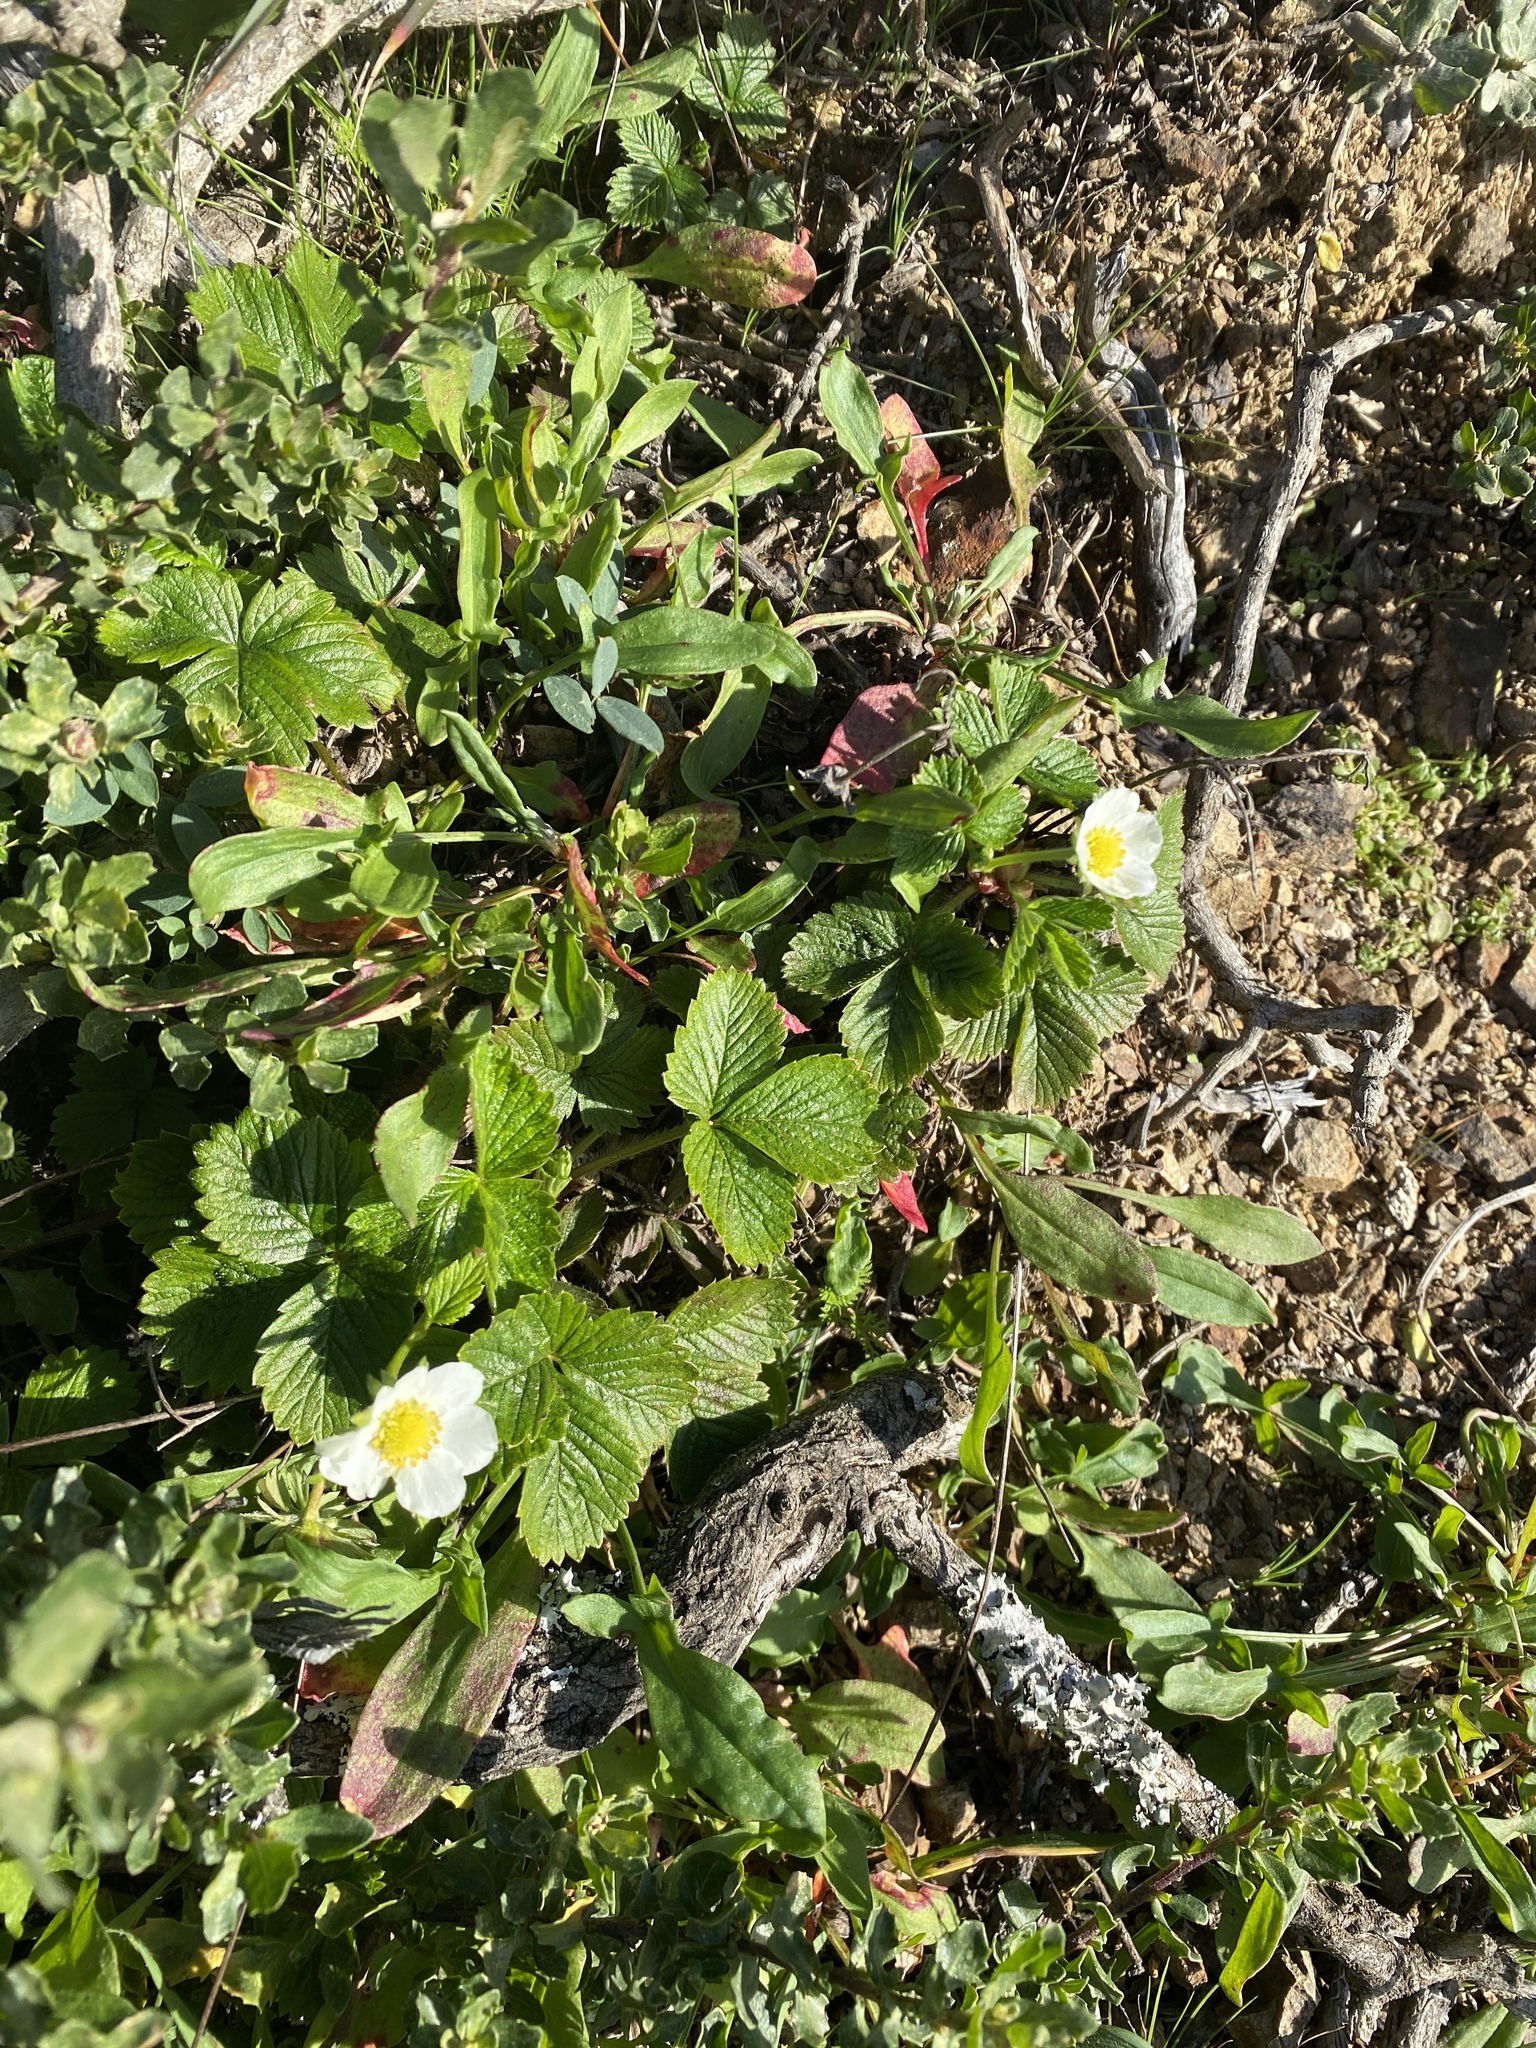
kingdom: Plantae
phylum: Tracheophyta
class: Magnoliopsida
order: Rosales
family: Rosaceae
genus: Fragaria
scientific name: Fragaria vesca
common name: Wild strawberry
